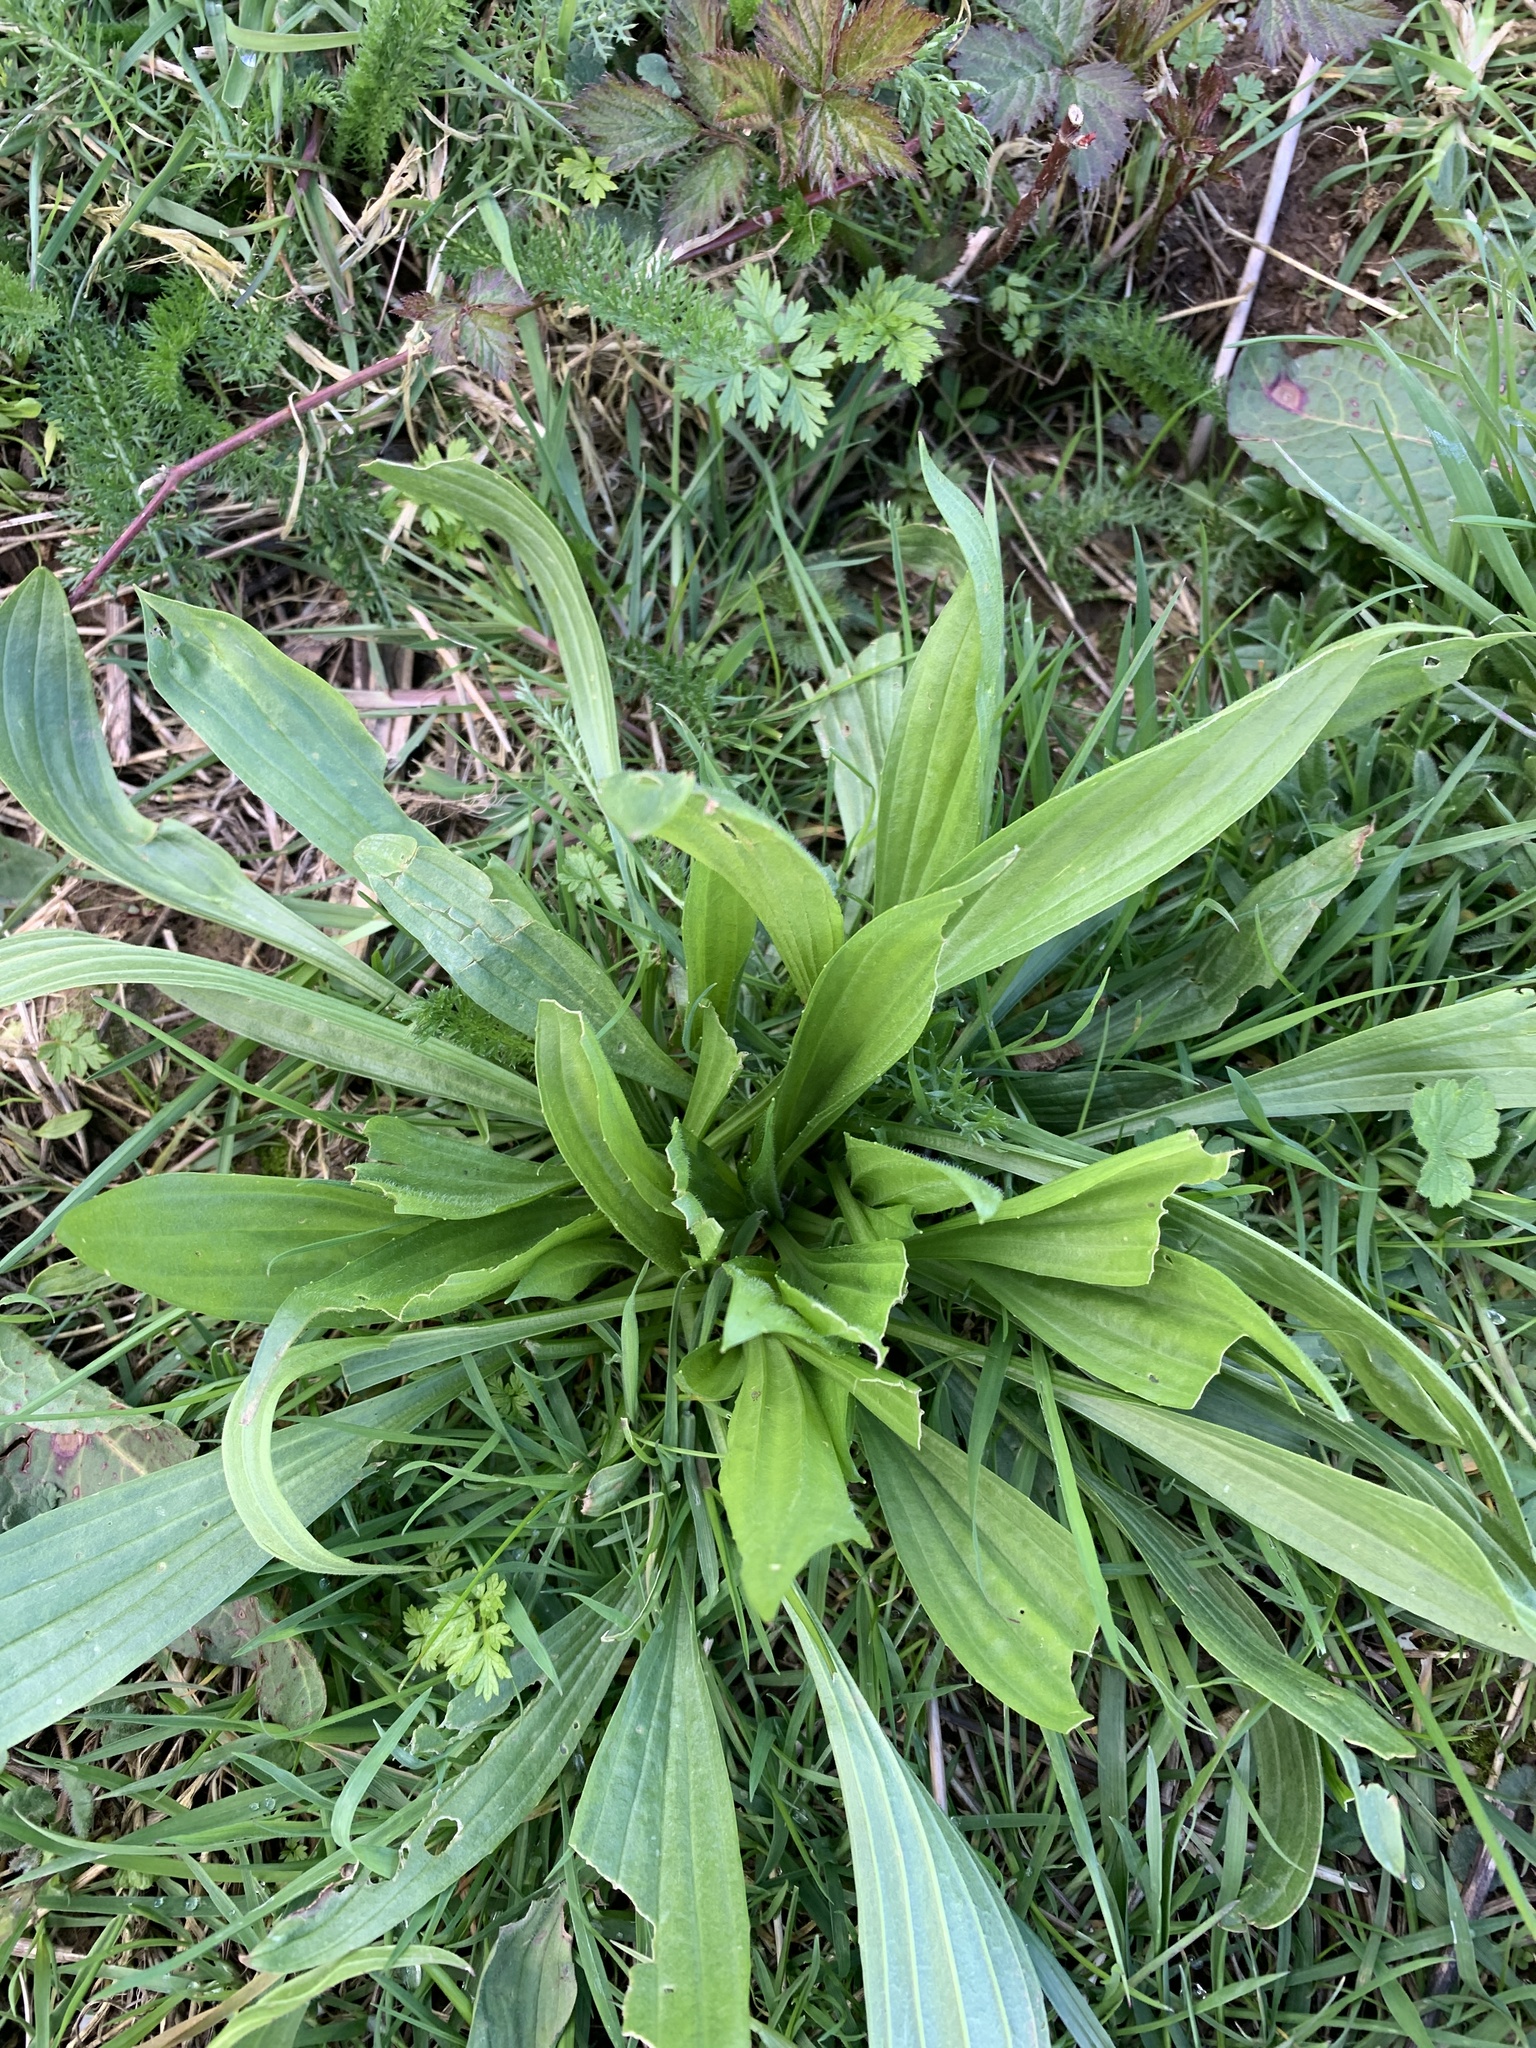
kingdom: Plantae
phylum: Tracheophyta
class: Magnoliopsida
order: Lamiales
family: Plantaginaceae
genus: Plantago
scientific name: Plantago lanceolata
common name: Ribwort plantain
